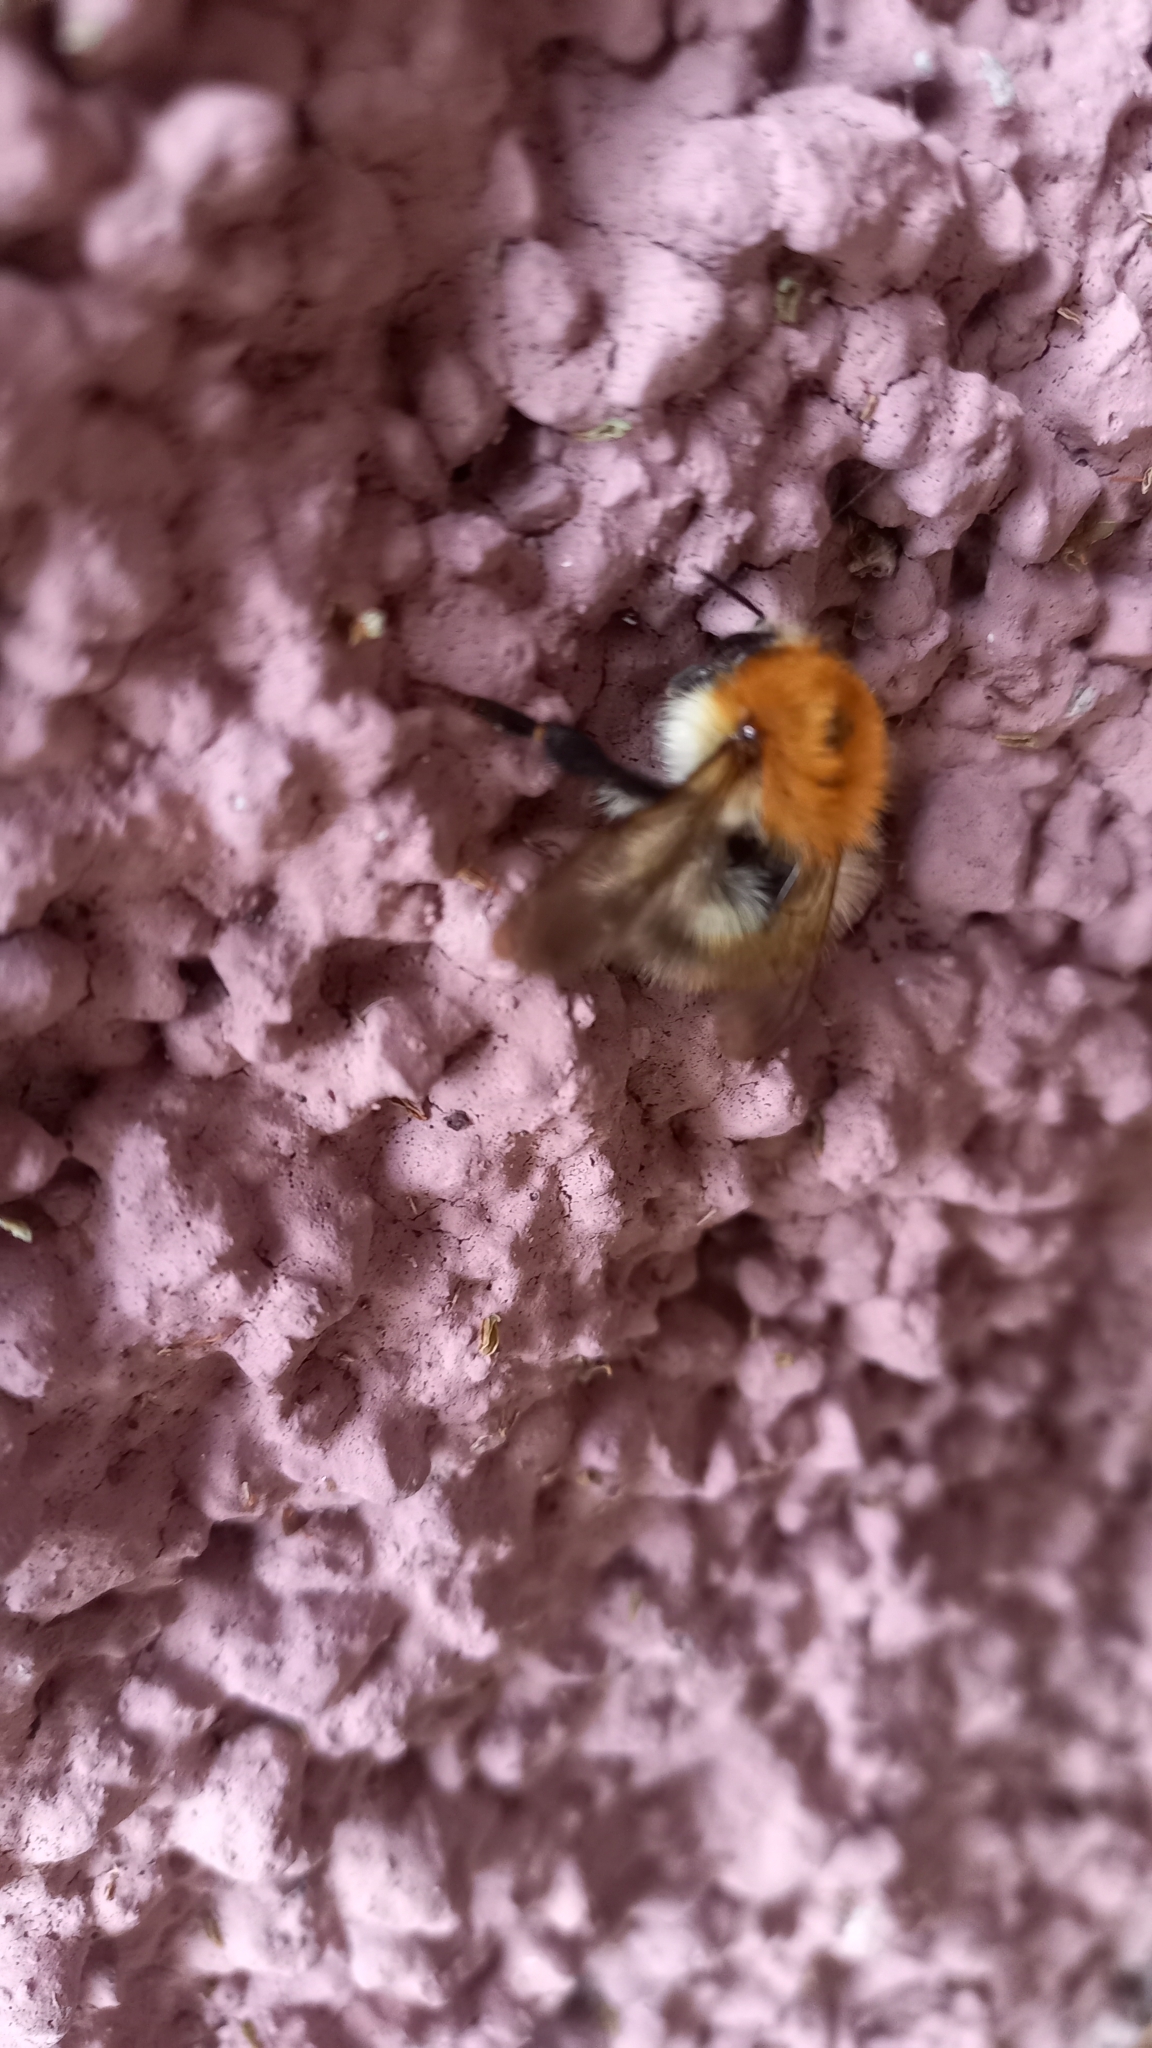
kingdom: Animalia
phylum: Arthropoda
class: Insecta
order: Hymenoptera
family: Apidae
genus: Bombus
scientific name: Bombus pascuorum
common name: Common carder bee
